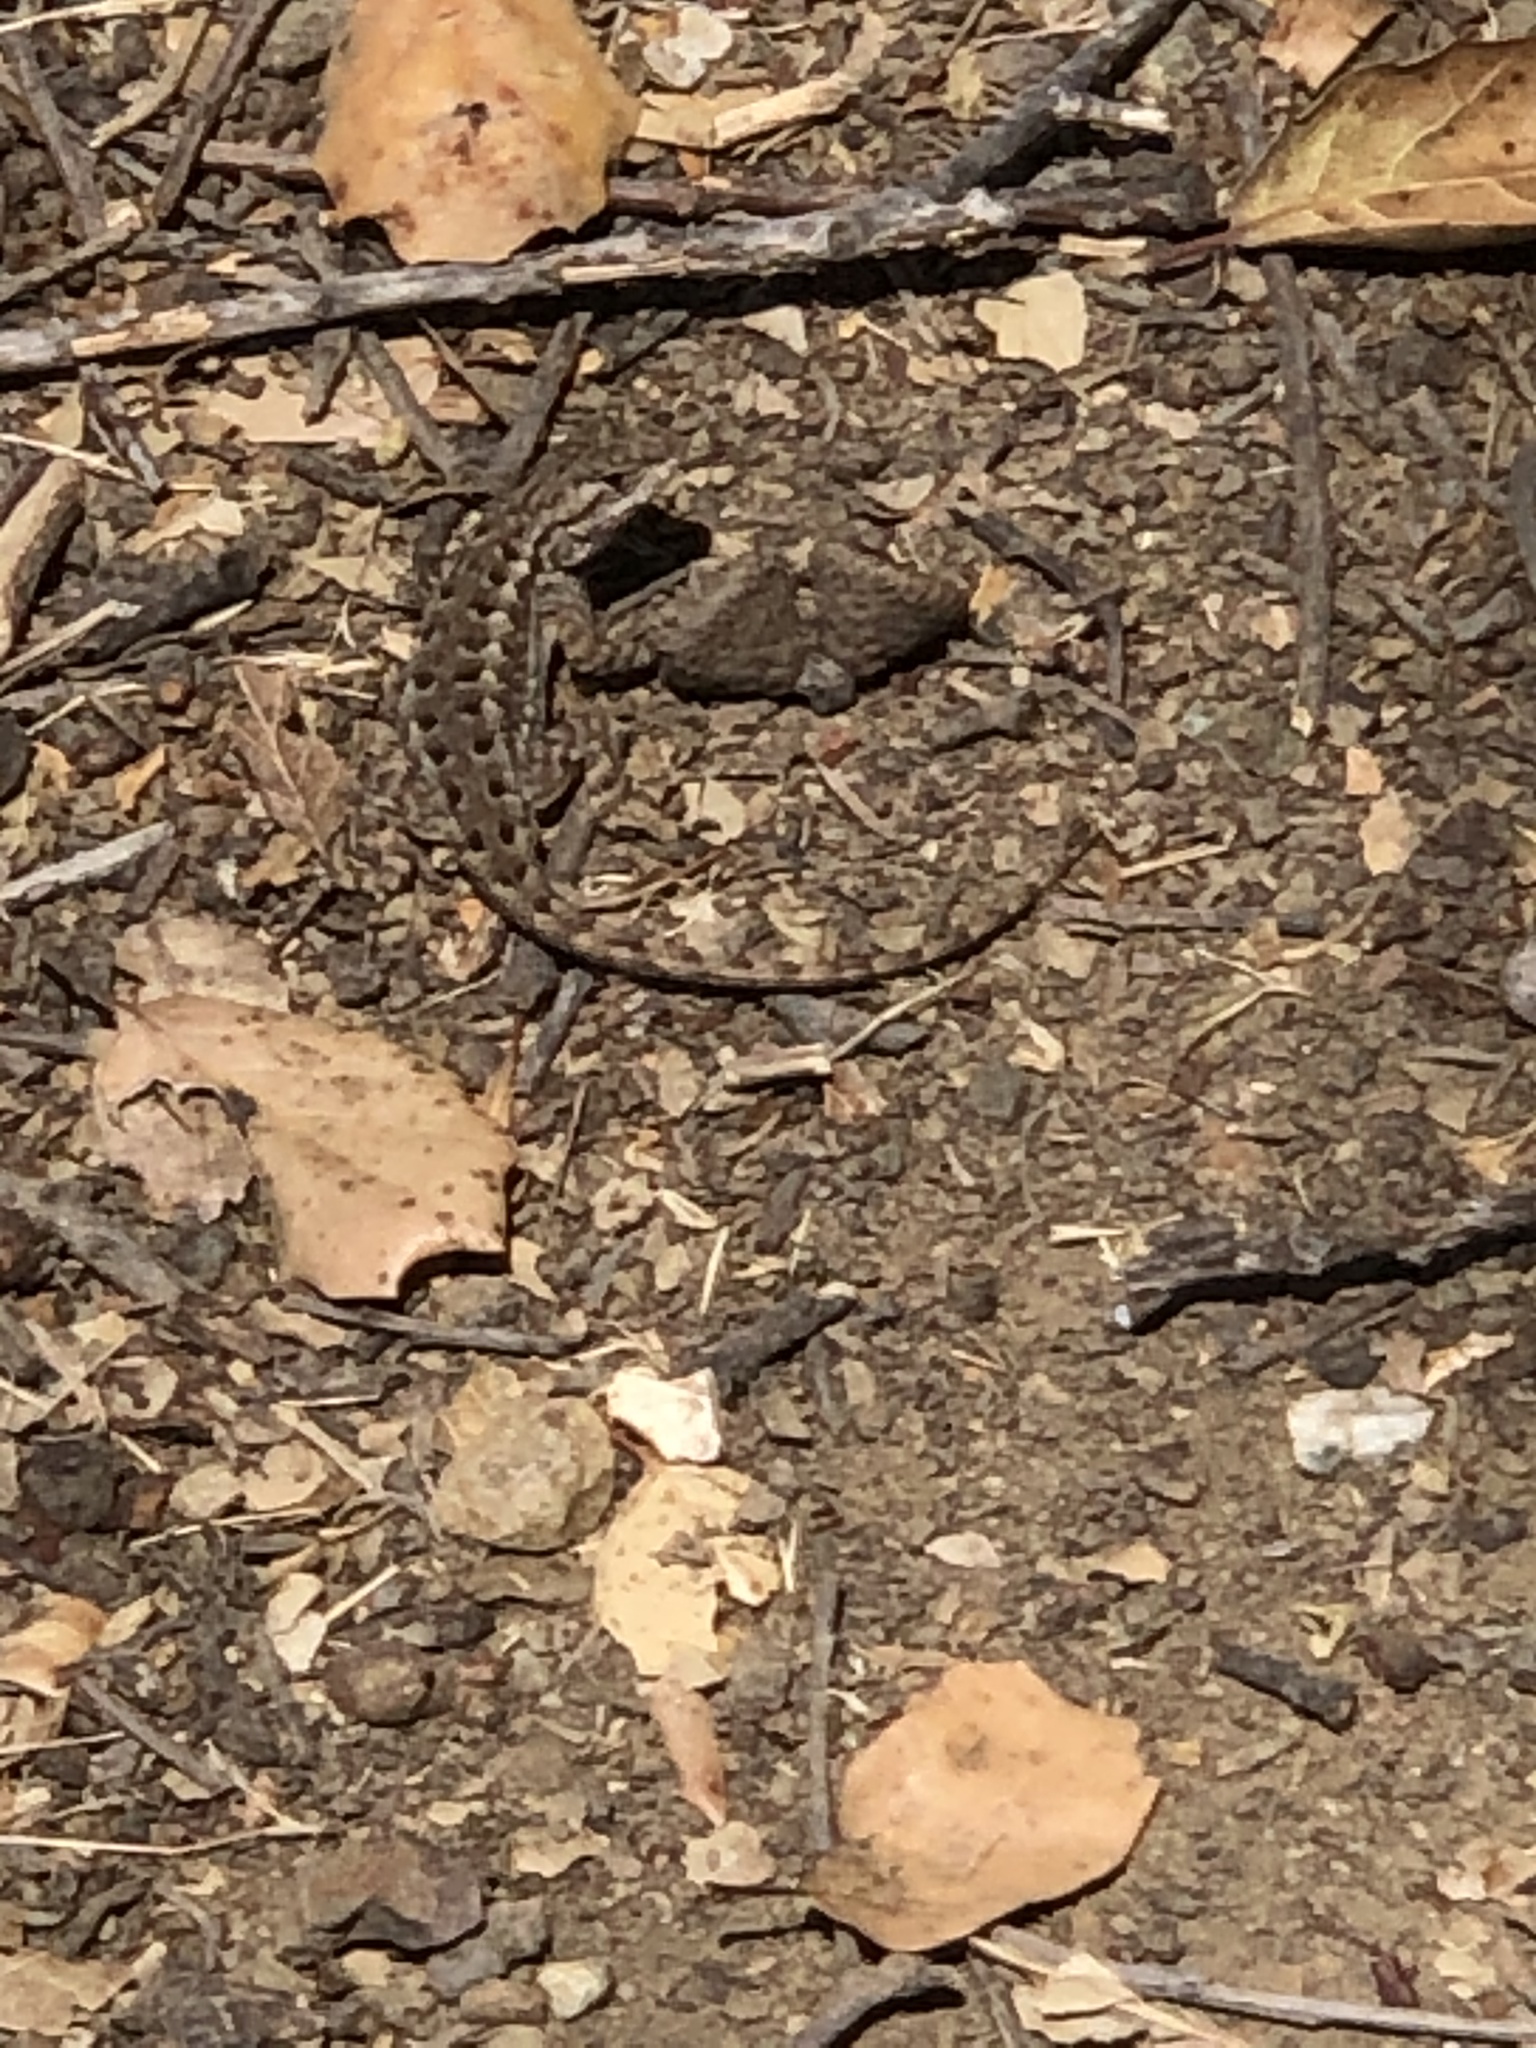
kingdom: Animalia
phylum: Chordata
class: Squamata
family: Phrynosomatidae
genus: Sceloporus
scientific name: Sceloporus occidentalis
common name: Western fence lizard
